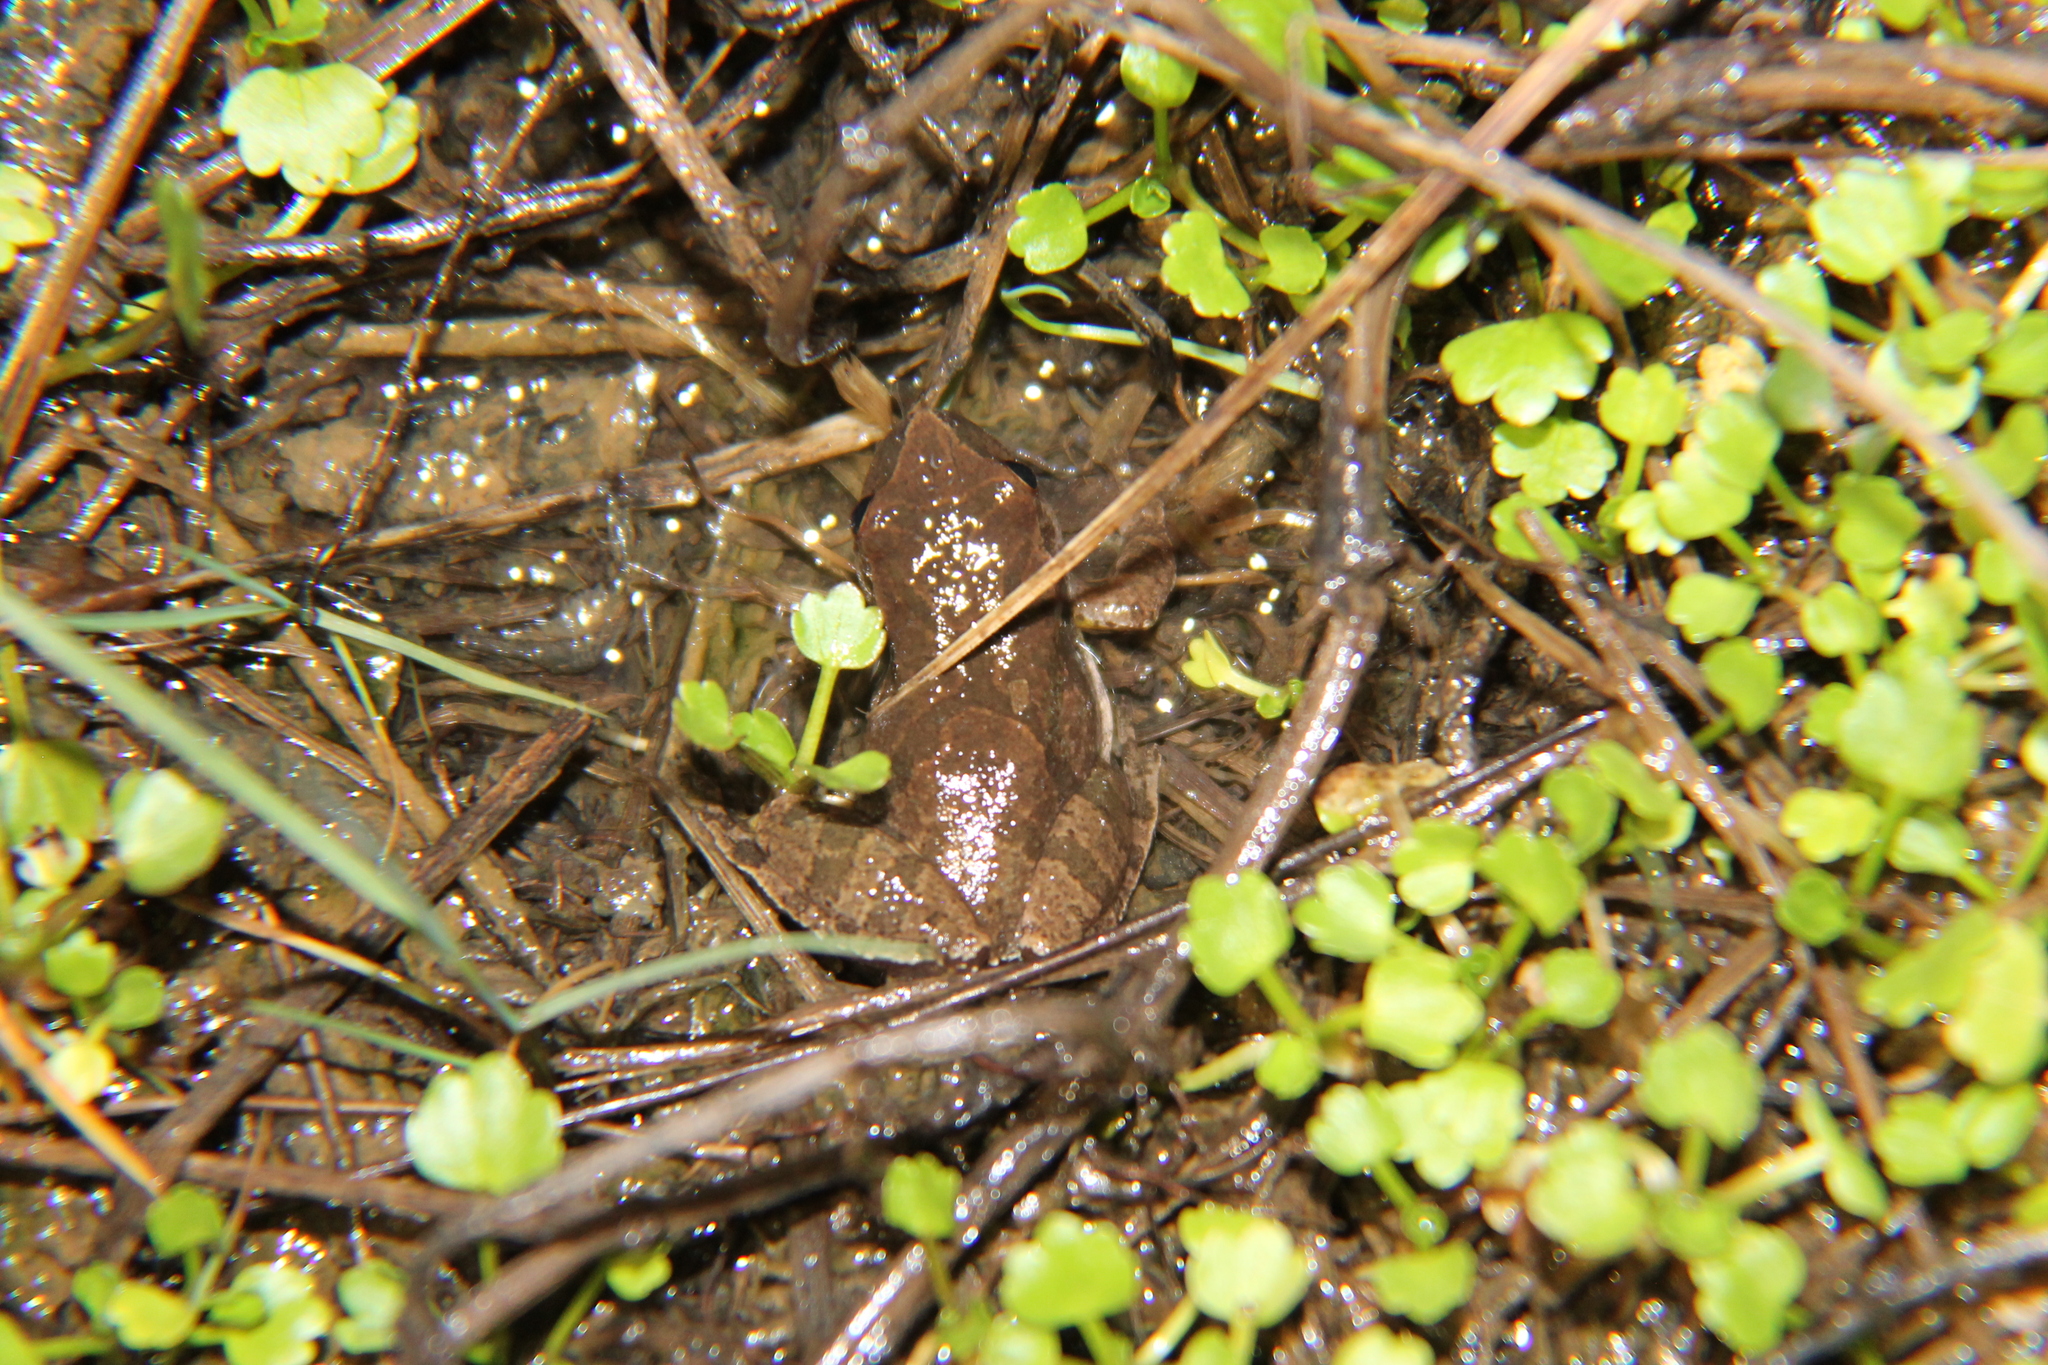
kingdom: Animalia
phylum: Chordata
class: Amphibia
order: Anura
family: Hylidae
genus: Pseudacris
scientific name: Pseudacris crucifer
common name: Spring peeper
